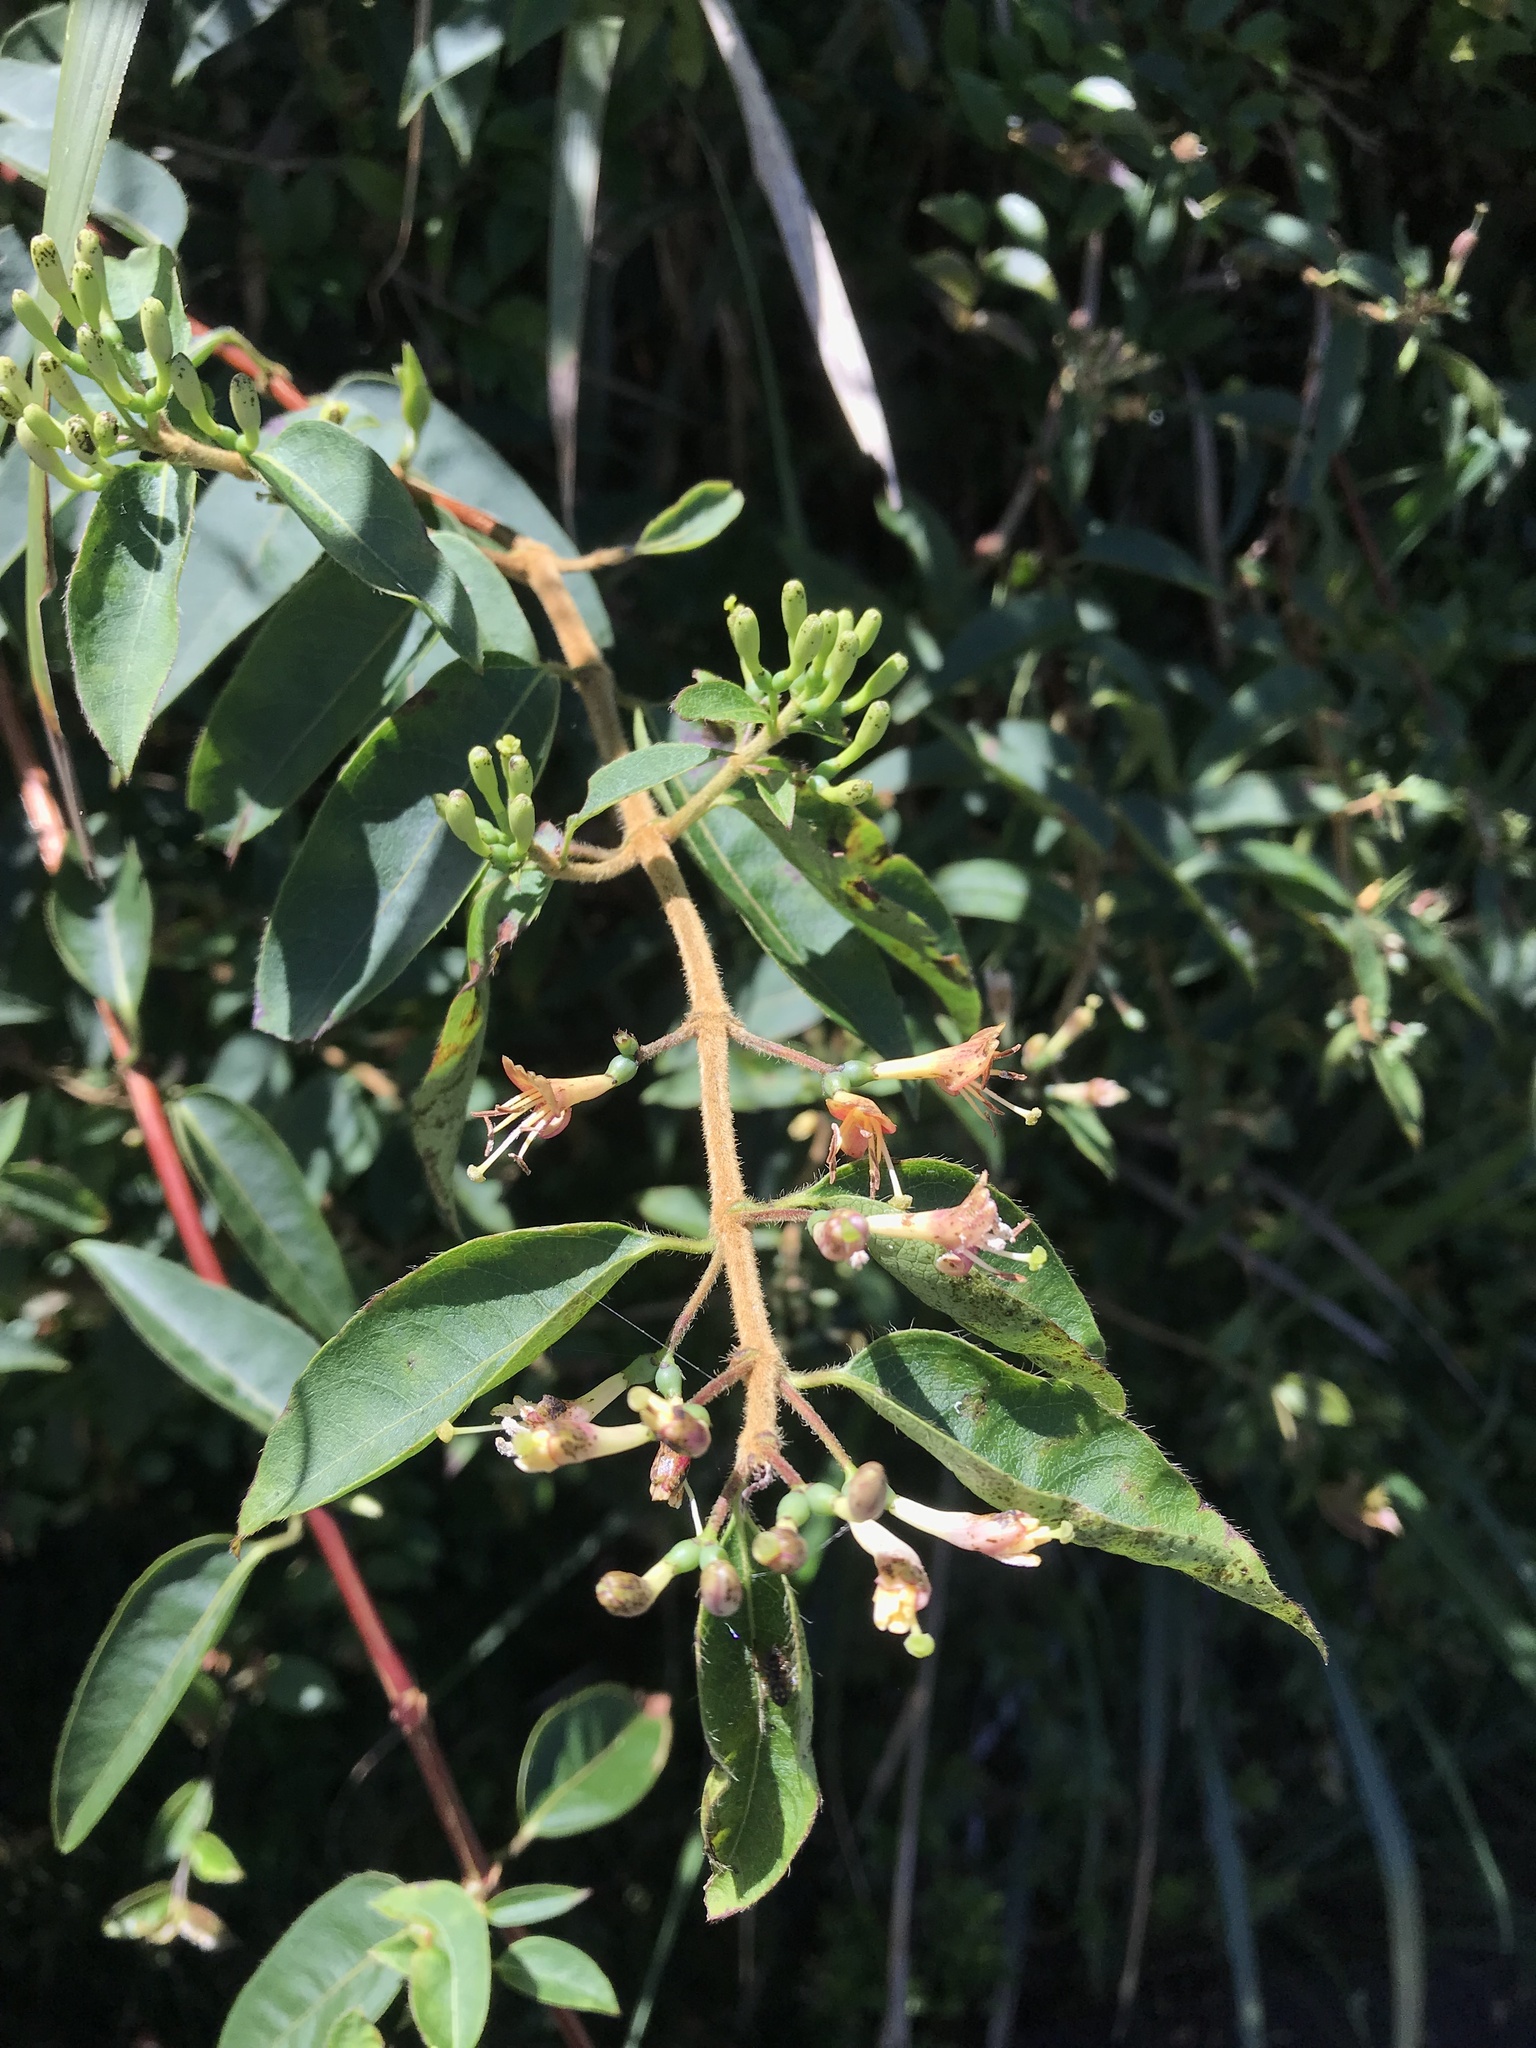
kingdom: Plantae
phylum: Tracheophyta
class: Magnoliopsida
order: Dipsacales
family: Caprifoliaceae
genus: Lonicera
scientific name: Lonicera acuminata
